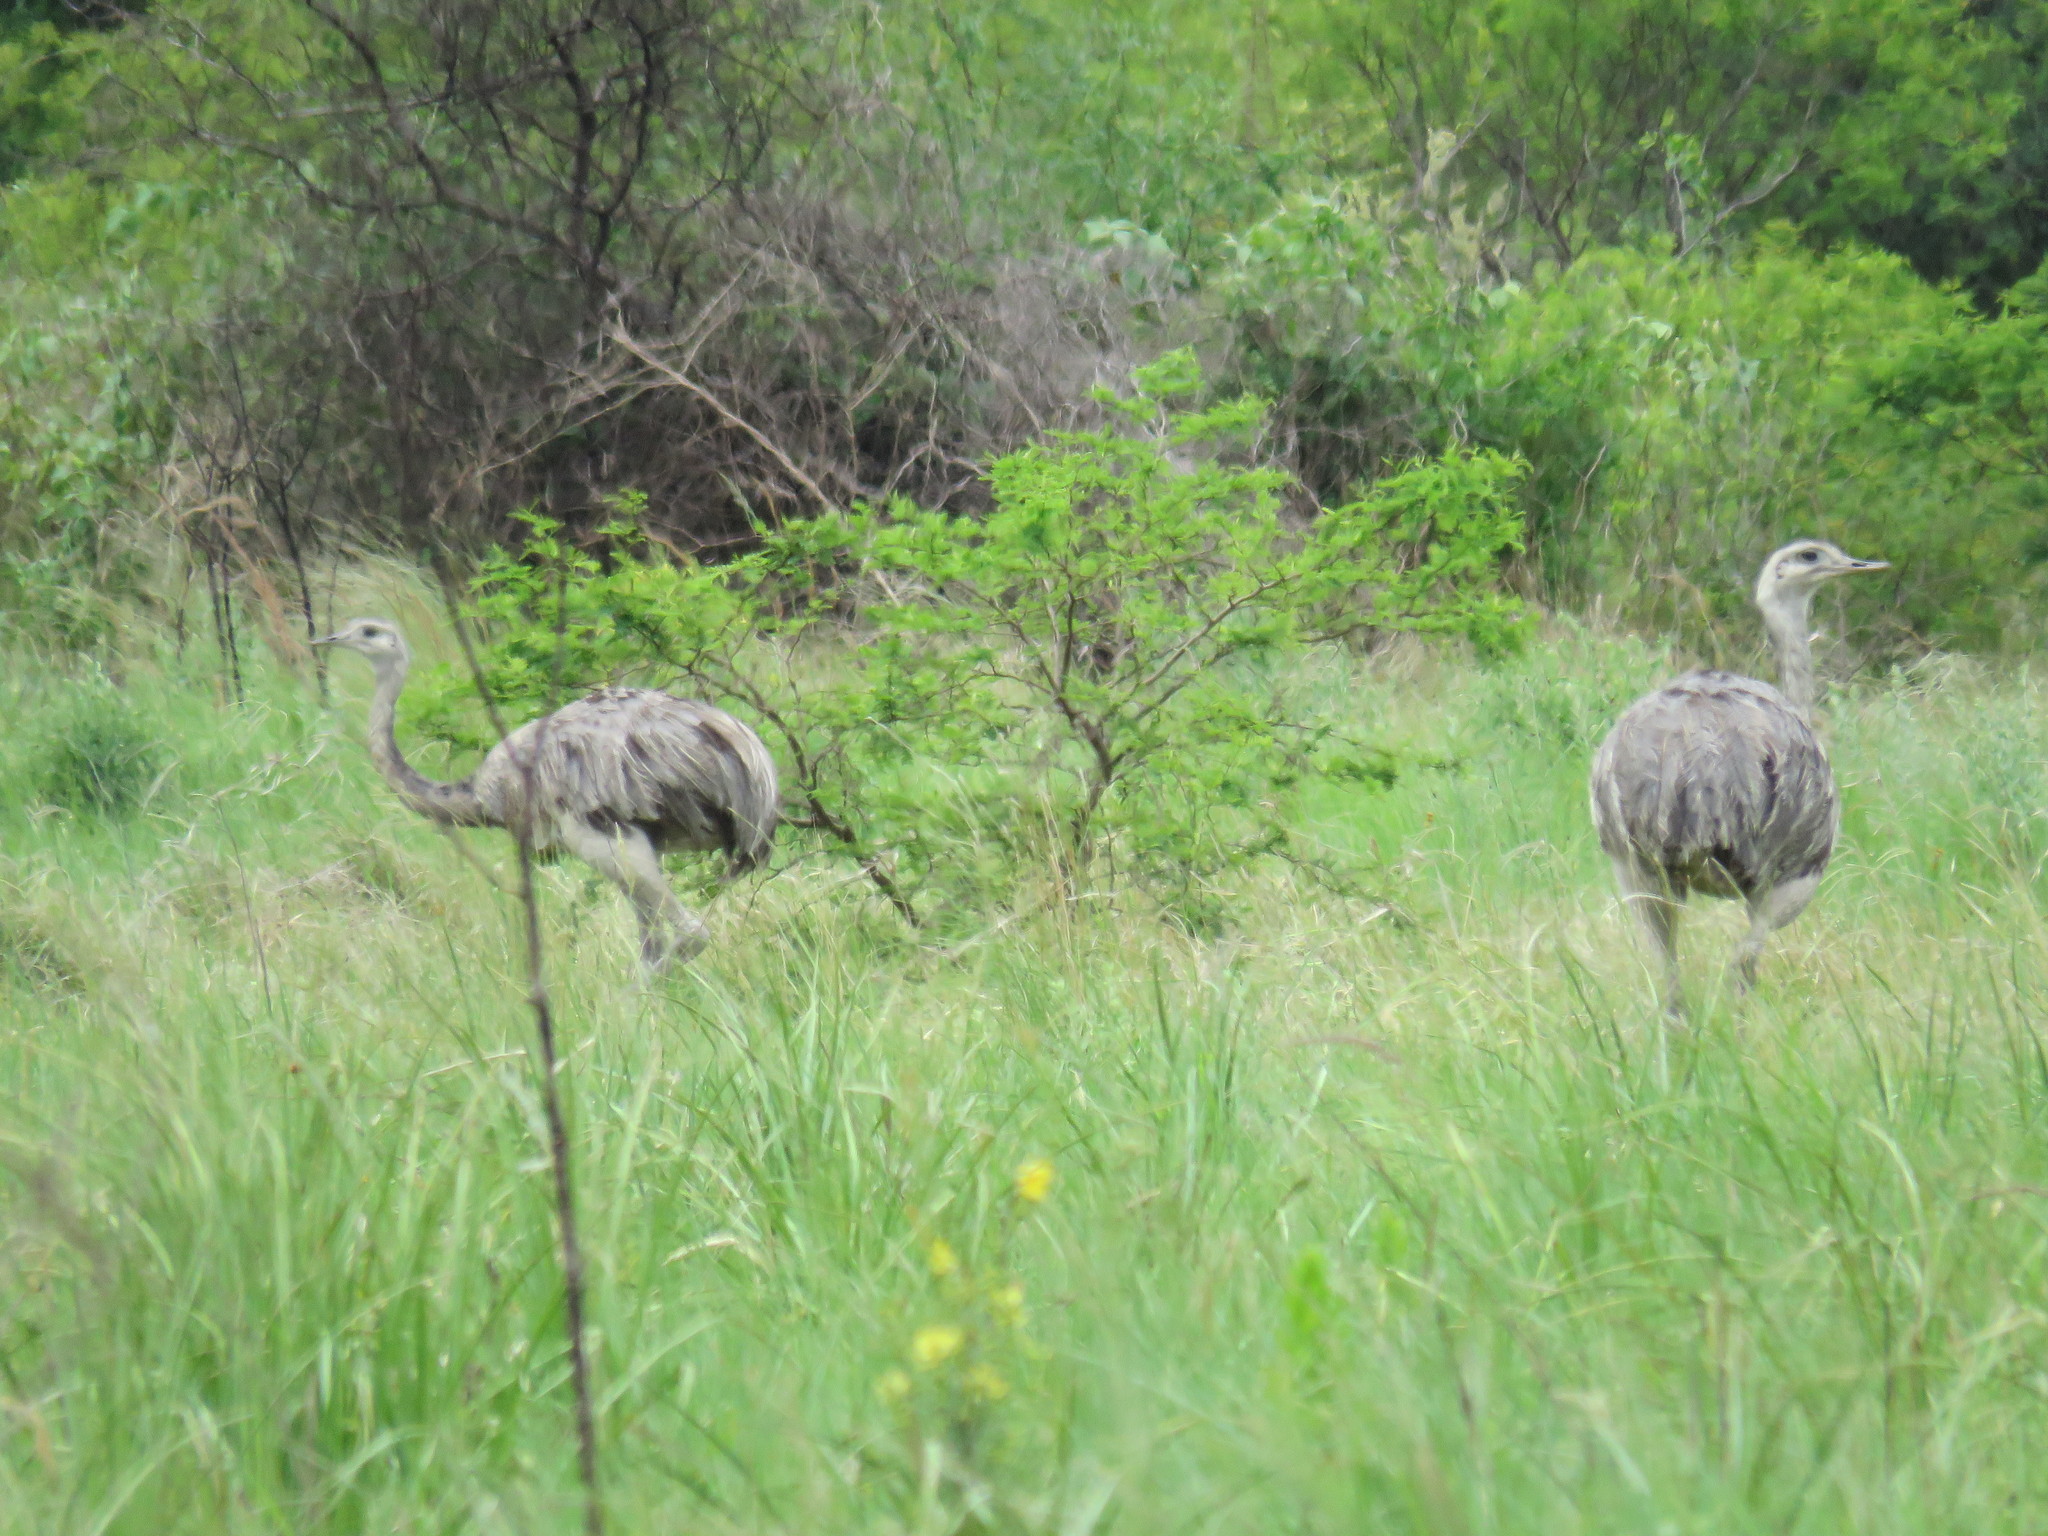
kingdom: Animalia
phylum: Chordata
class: Aves
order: Rheiformes
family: Rheidae
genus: Rhea
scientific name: Rhea americana
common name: Greater rhea
